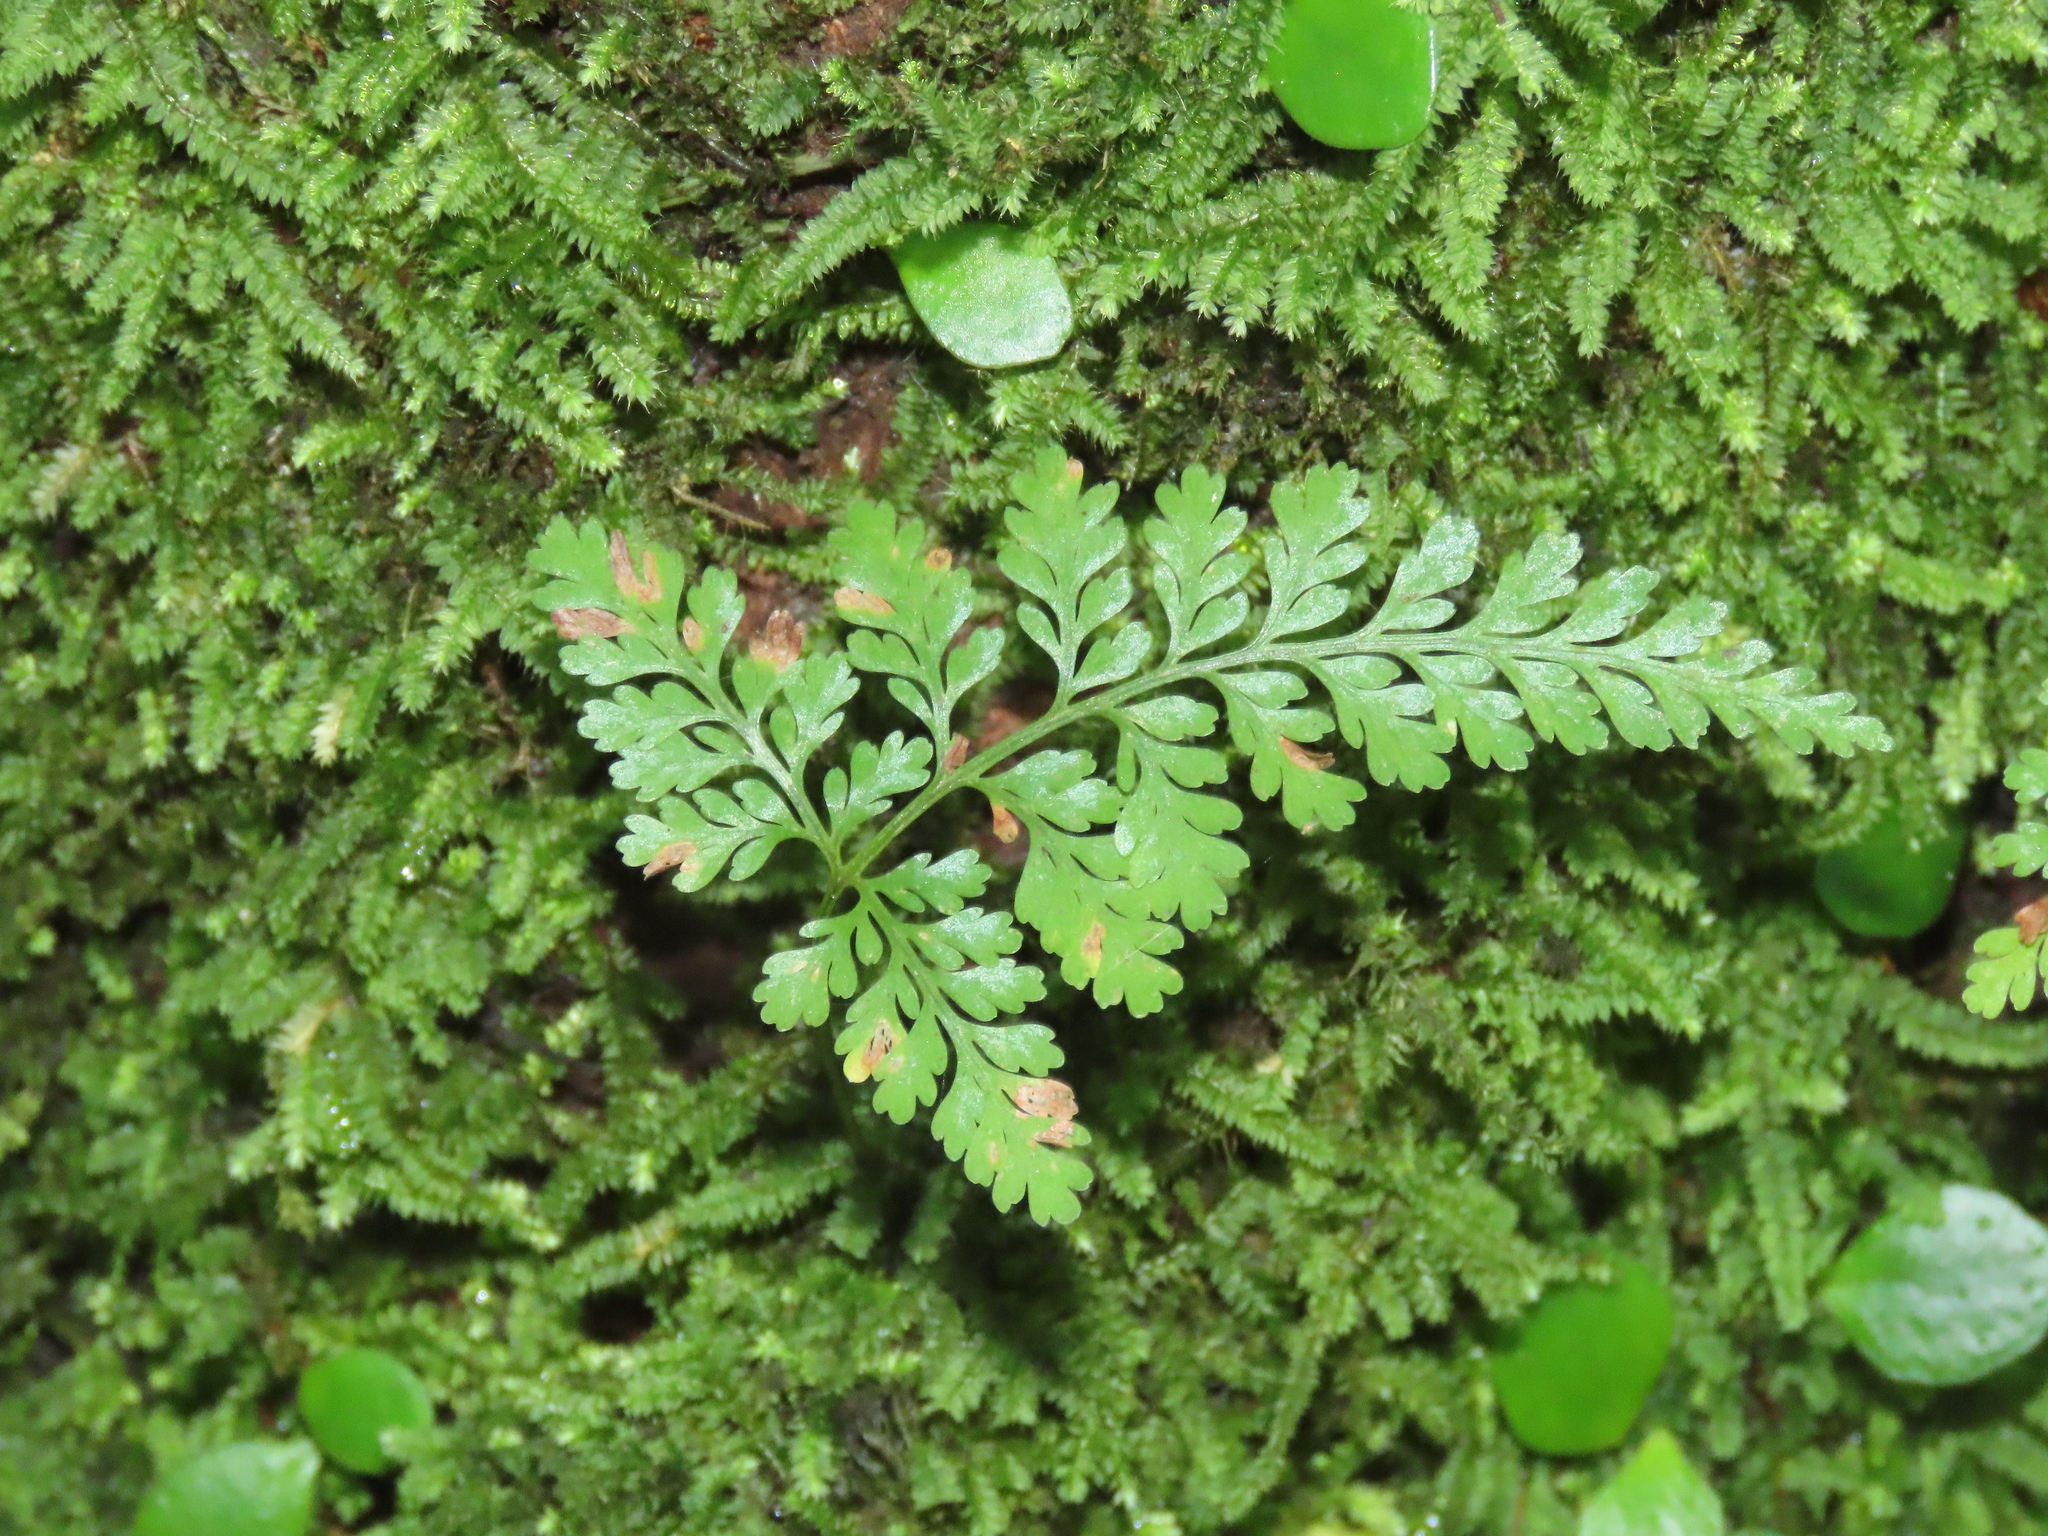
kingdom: Plantae
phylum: Tracheophyta
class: Polypodiopsida
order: Polypodiales
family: Davalliaceae
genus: Davallia
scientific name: Davallia griffithiana
